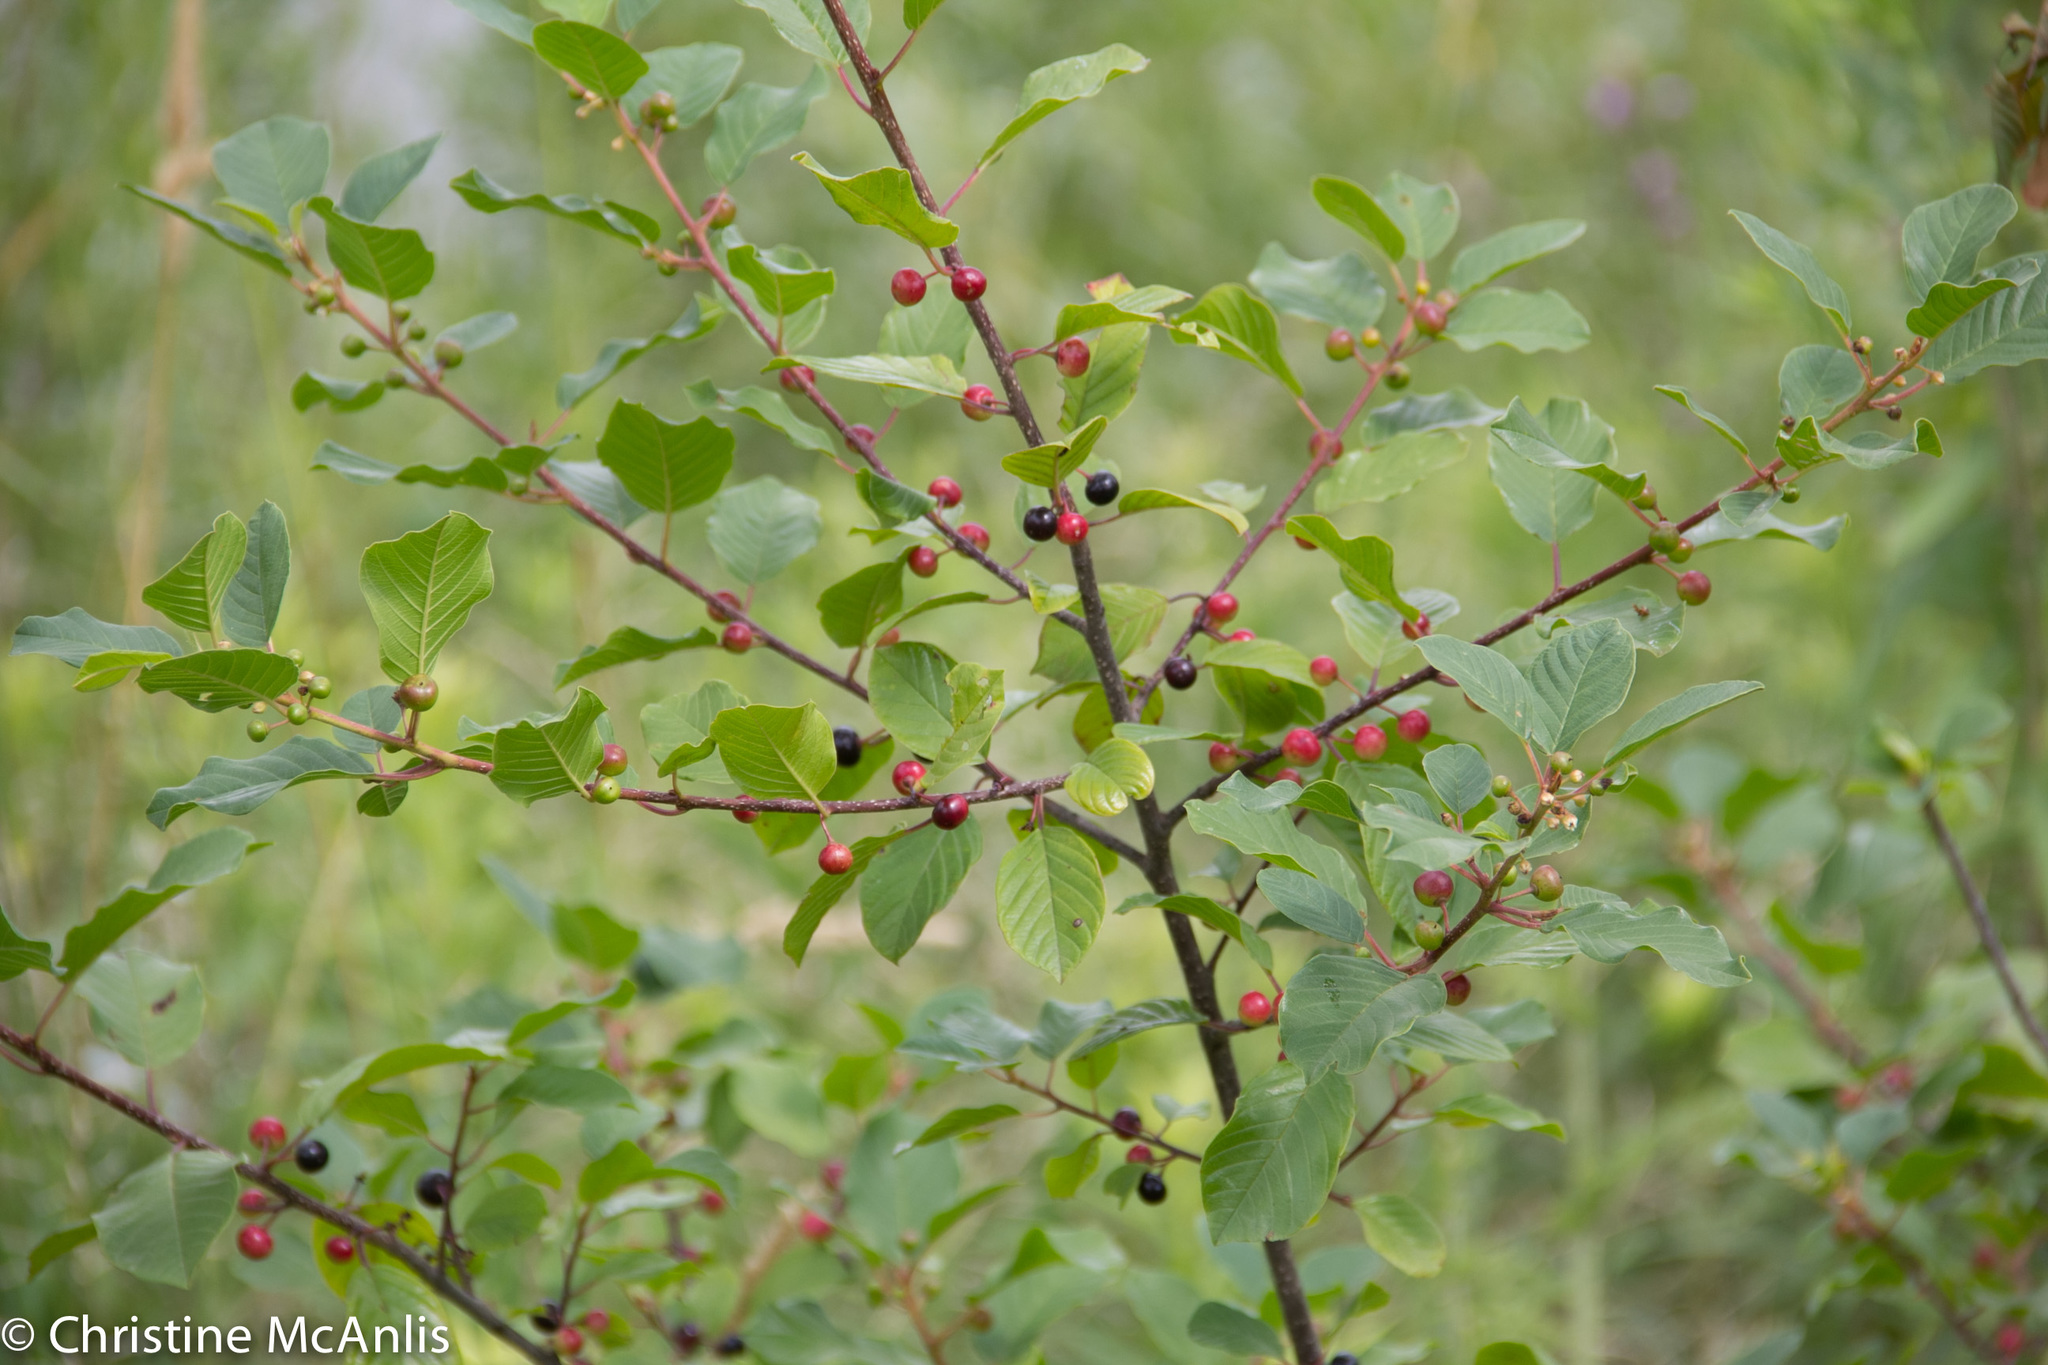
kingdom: Plantae
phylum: Tracheophyta
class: Magnoliopsida
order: Rosales
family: Rhamnaceae
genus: Frangula
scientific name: Frangula alnus
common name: Alder buckthorn
